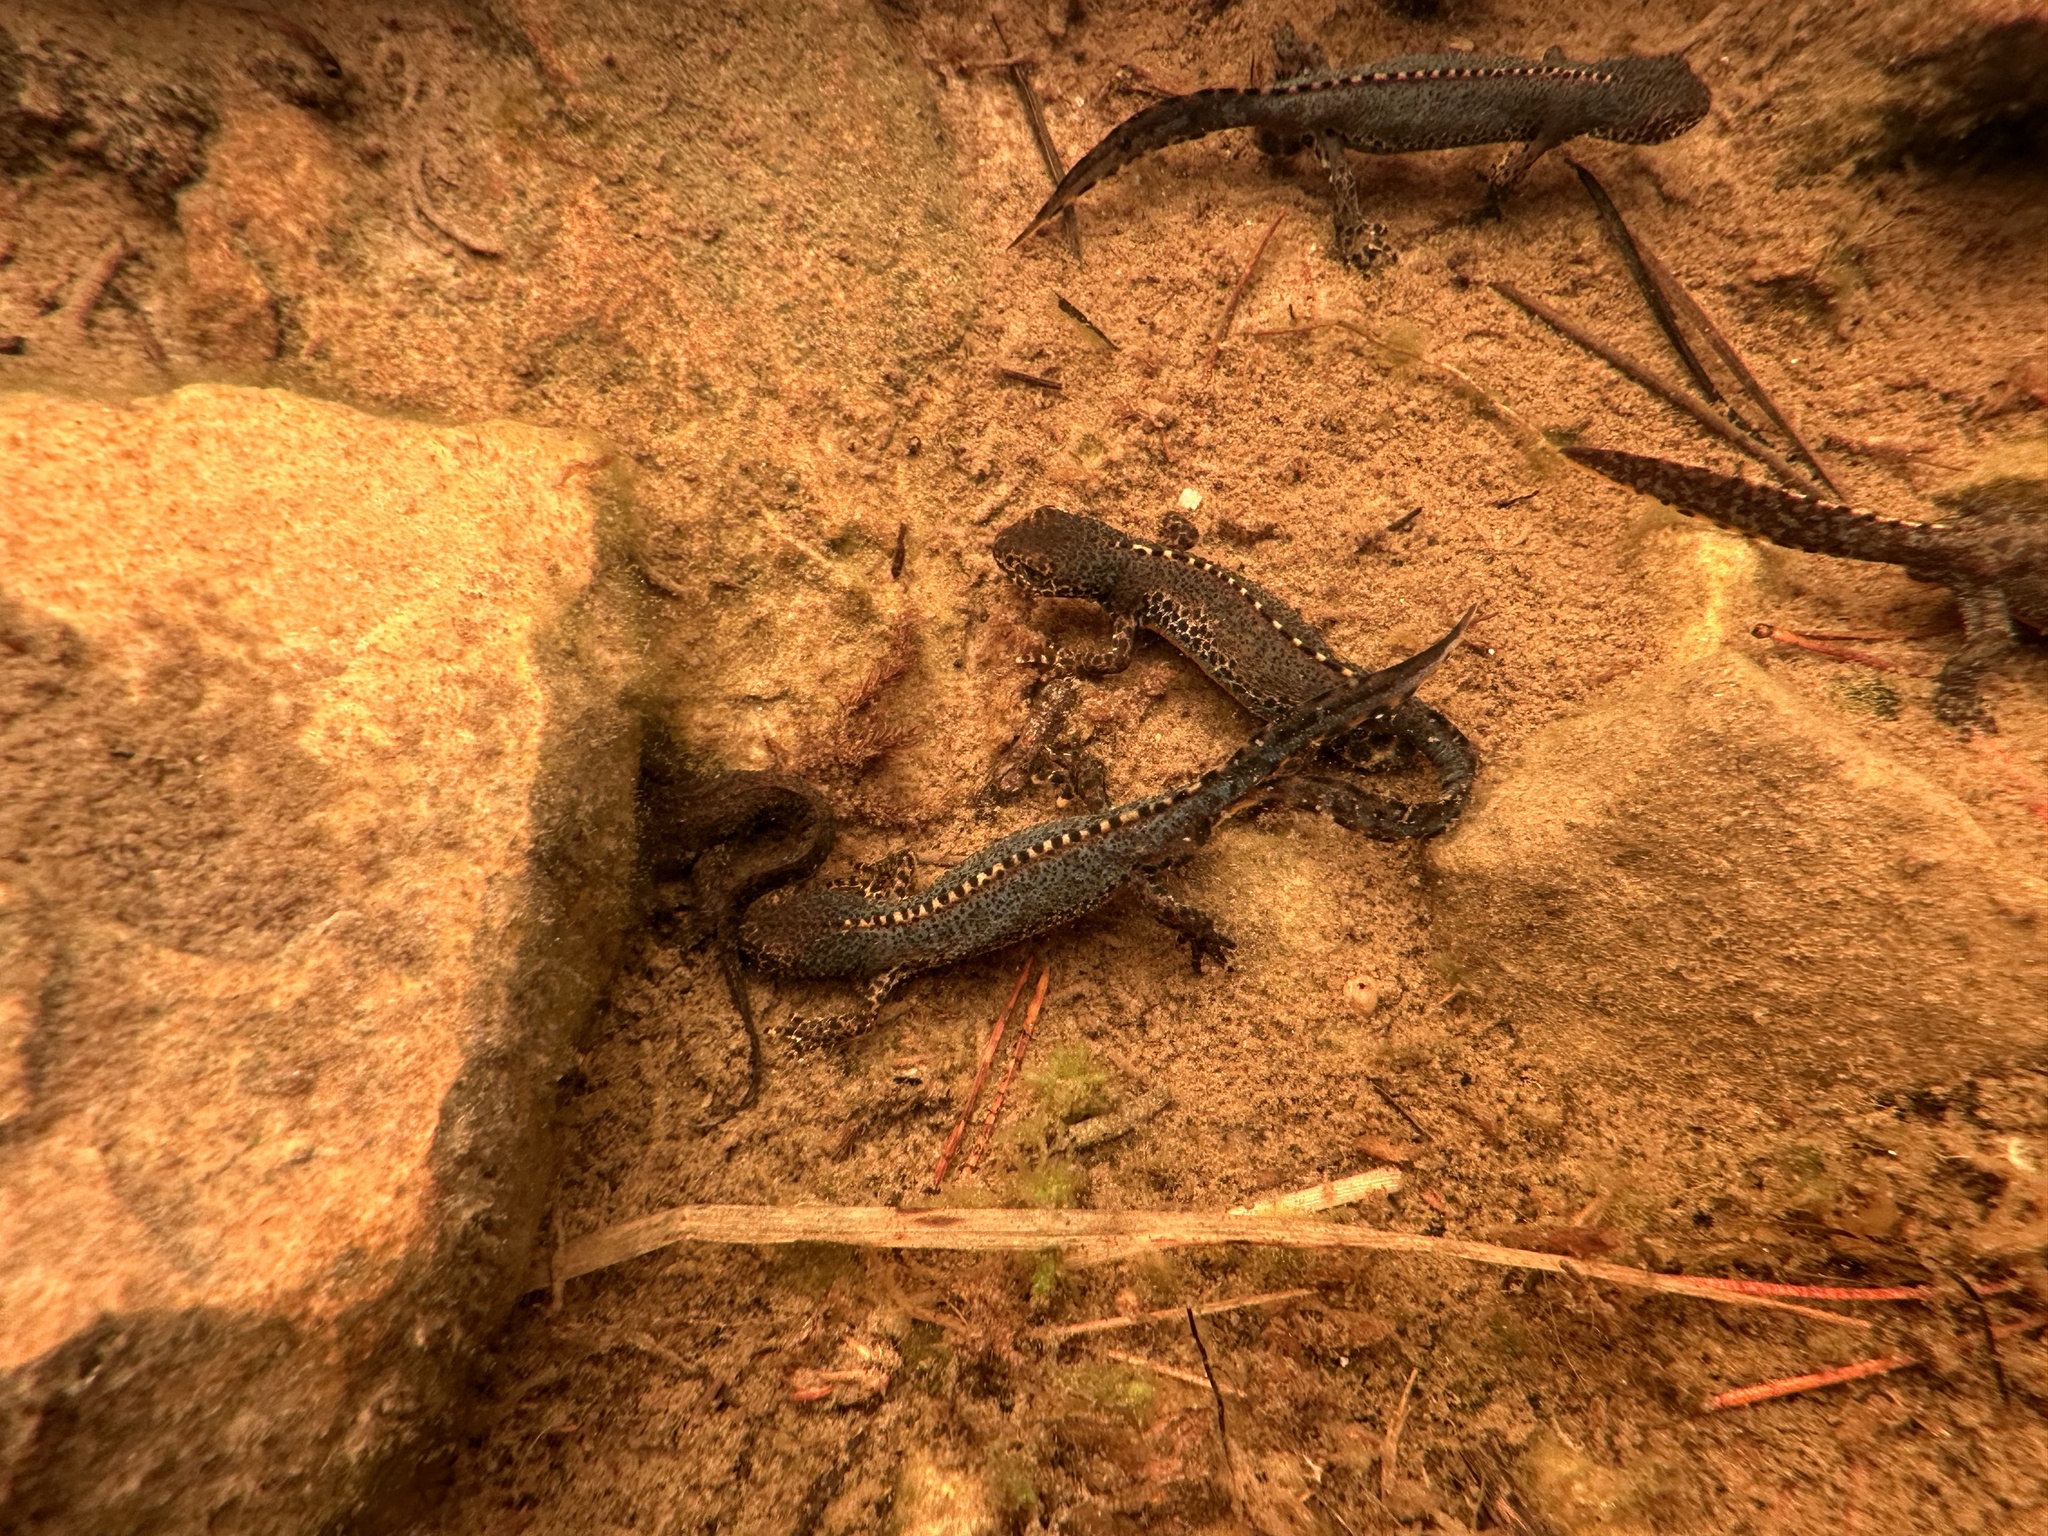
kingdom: Animalia
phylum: Chordata
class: Amphibia
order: Caudata
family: Salamandridae
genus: Ichthyosaura
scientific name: Ichthyosaura alpestris
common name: Alpine newt
